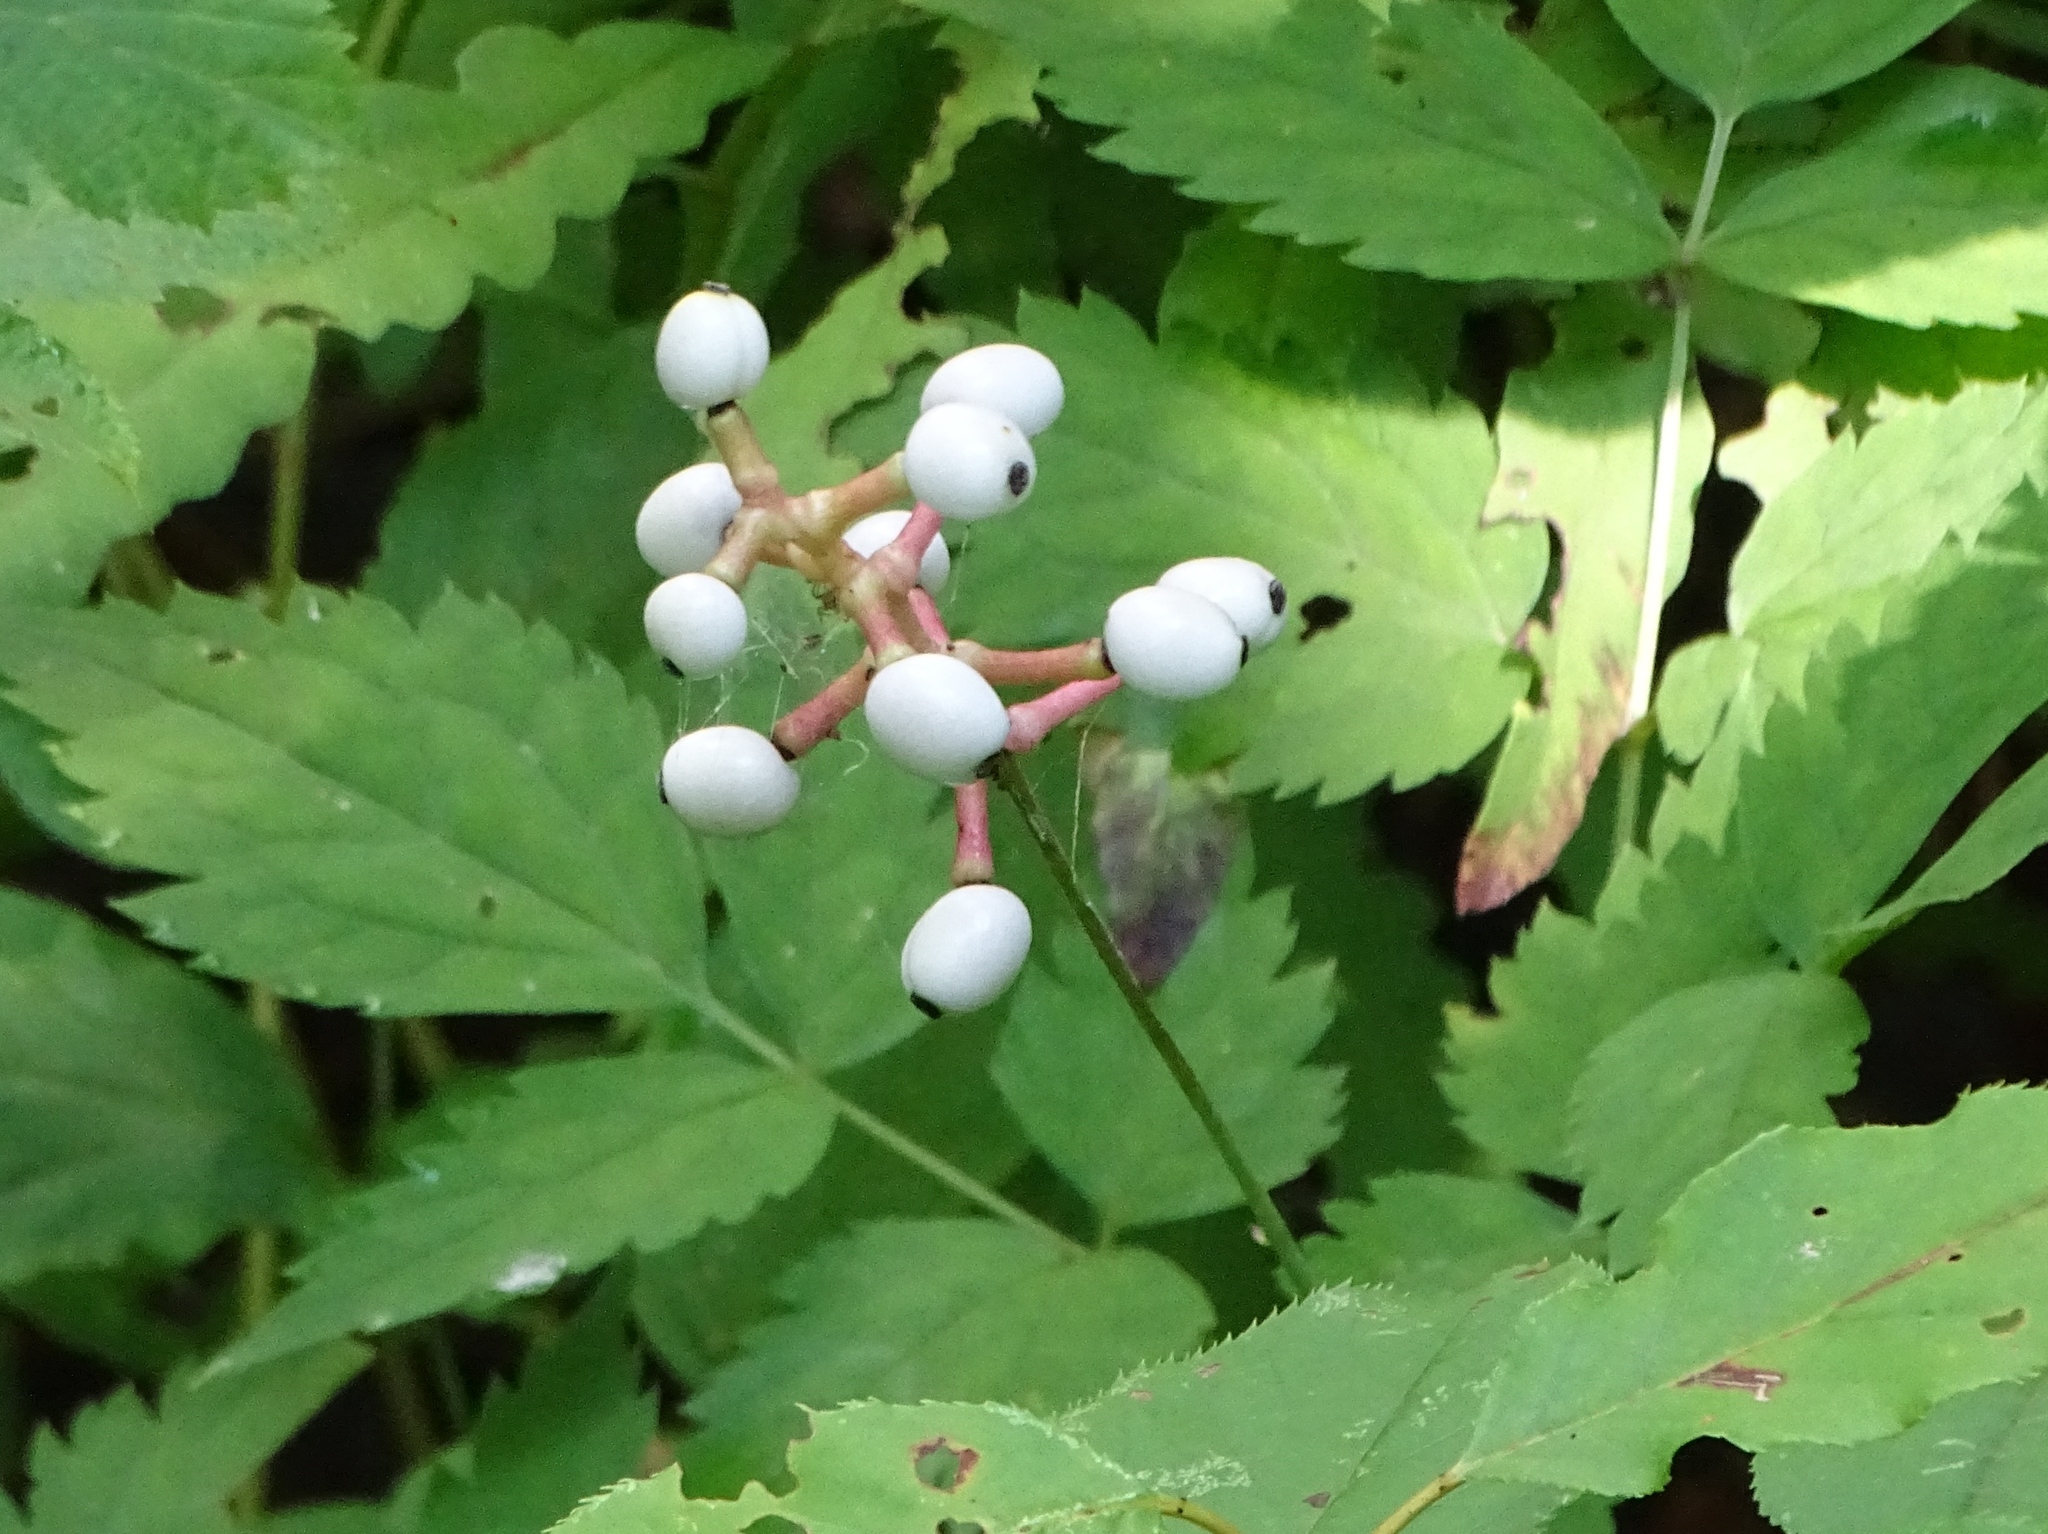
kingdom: Plantae
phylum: Tracheophyta
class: Magnoliopsida
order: Ranunculales
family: Ranunculaceae
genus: Actaea
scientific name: Actaea pachypoda
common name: Doll's-eyes
